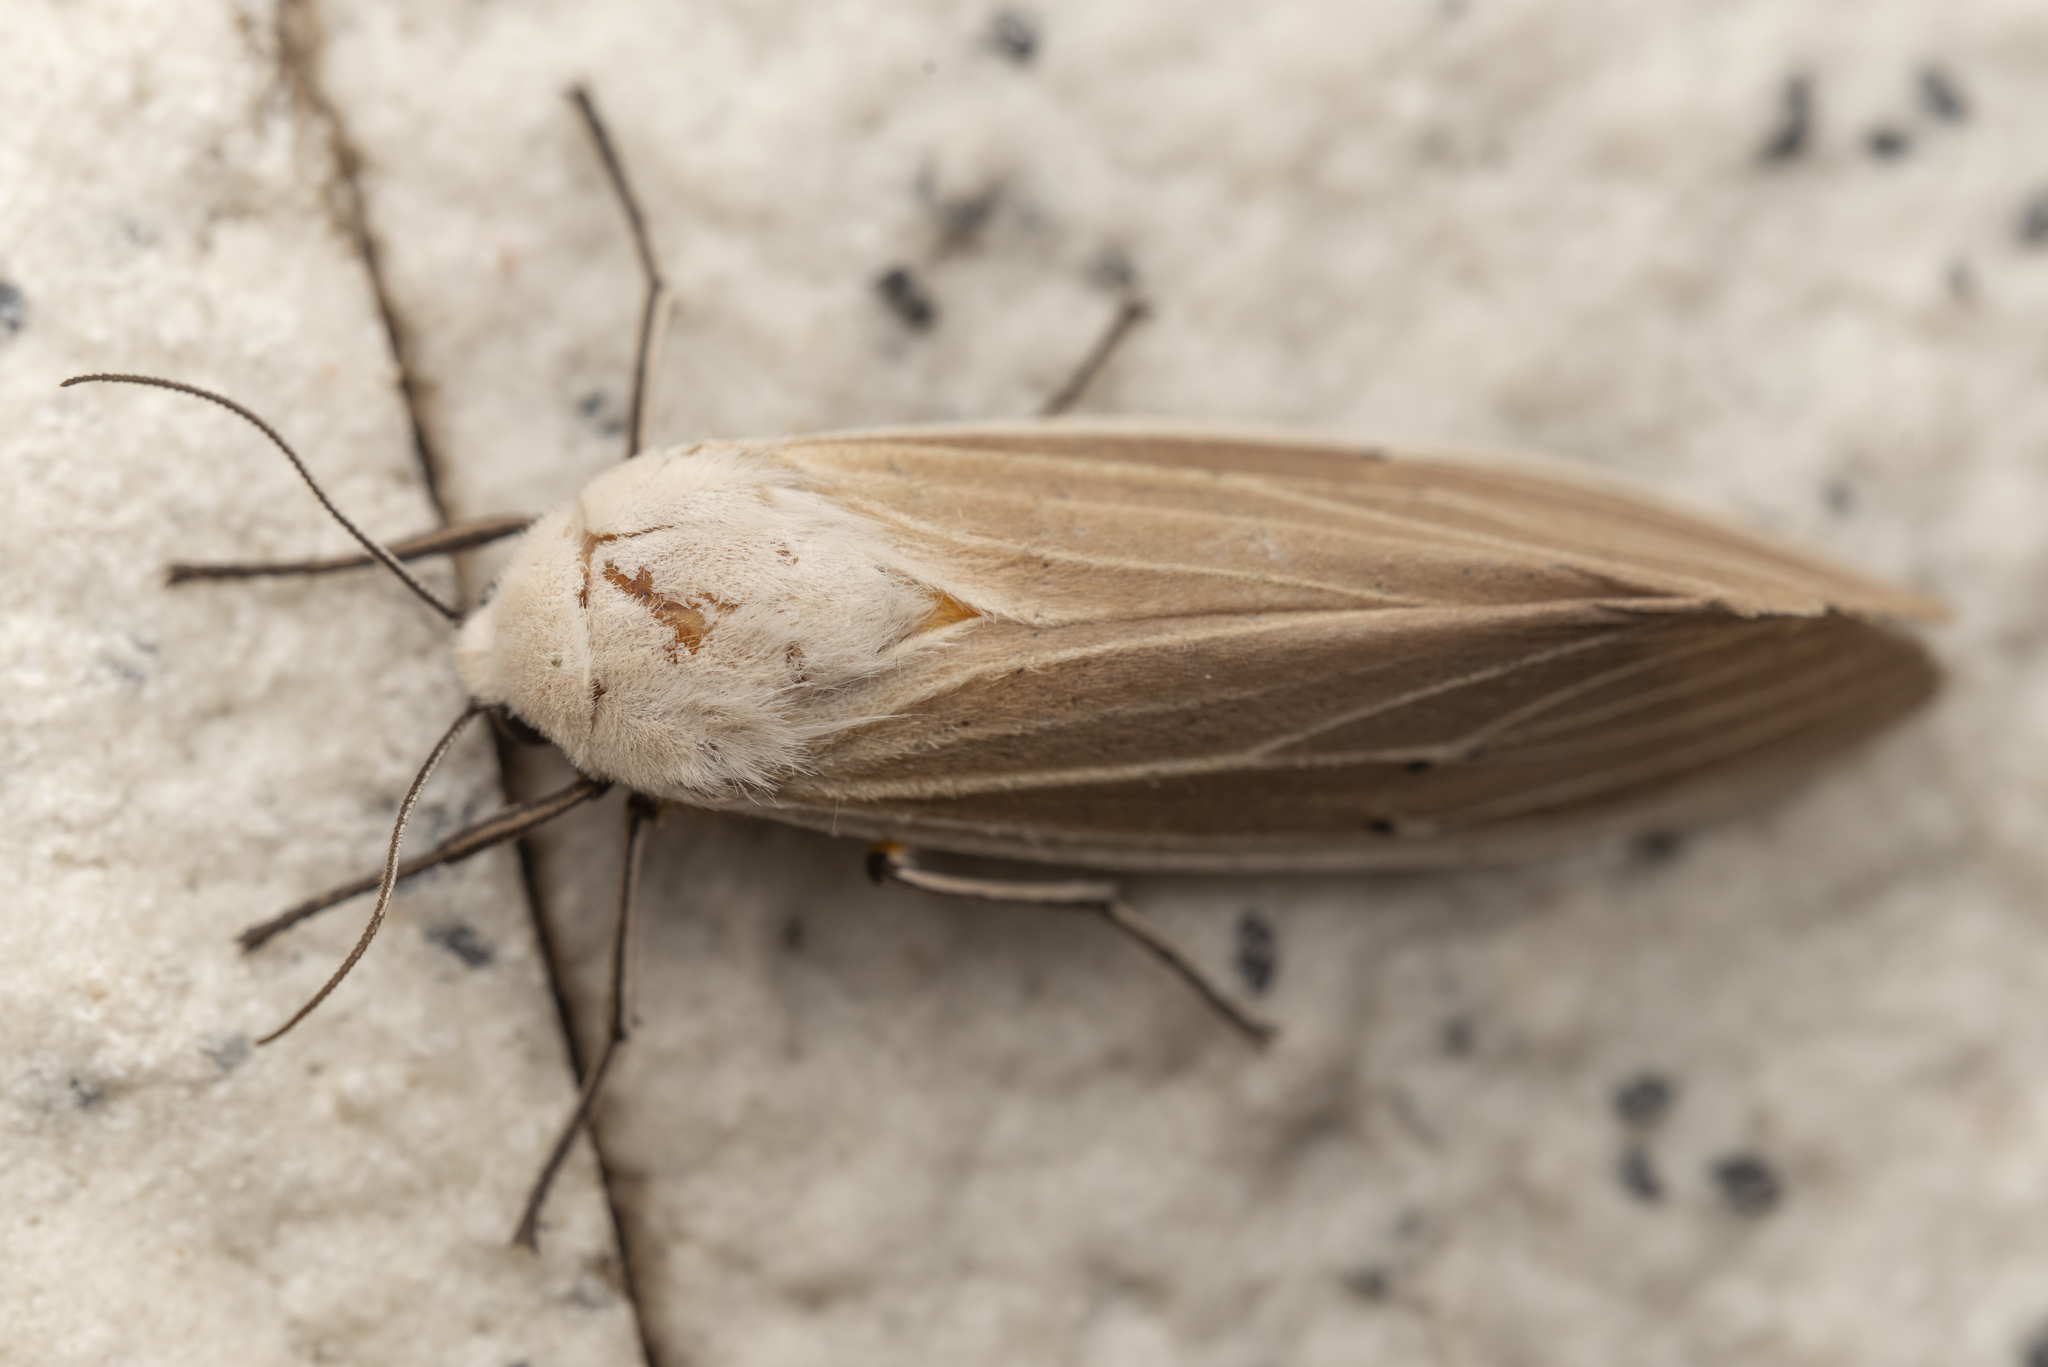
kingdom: Animalia
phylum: Arthropoda
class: Insecta
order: Lepidoptera
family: Erebidae
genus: Creatonotos
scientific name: Creatonotos transiens
